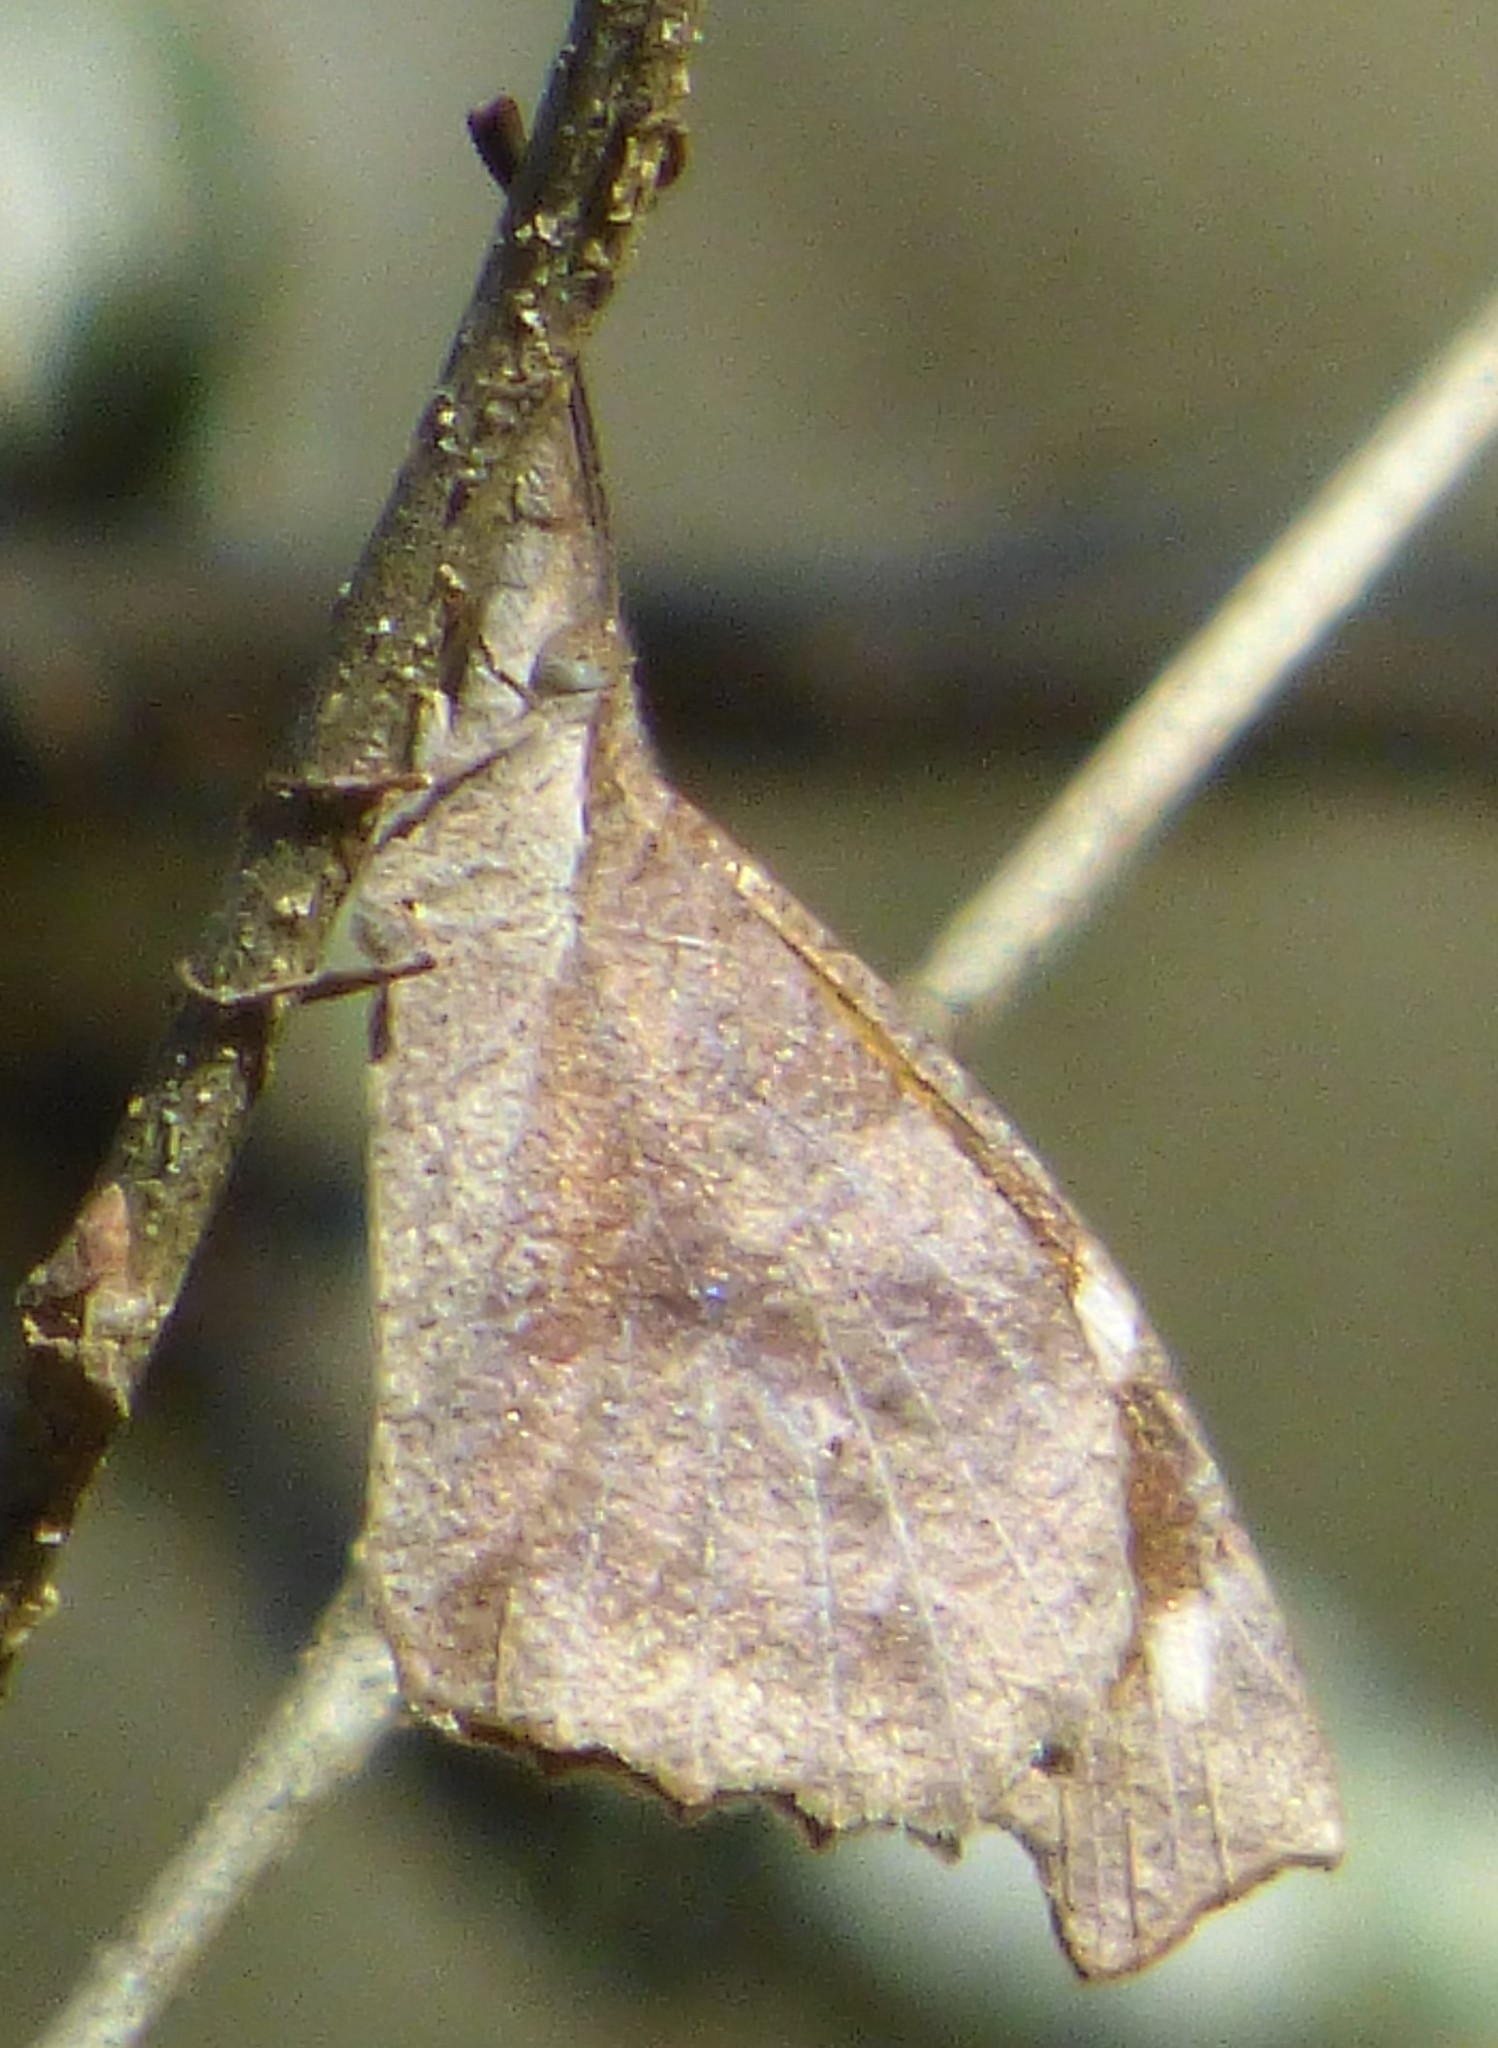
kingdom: Animalia
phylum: Arthropoda
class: Insecta
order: Lepidoptera
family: Nymphalidae
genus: Libytheana
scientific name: Libytheana carinenta
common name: American snout
